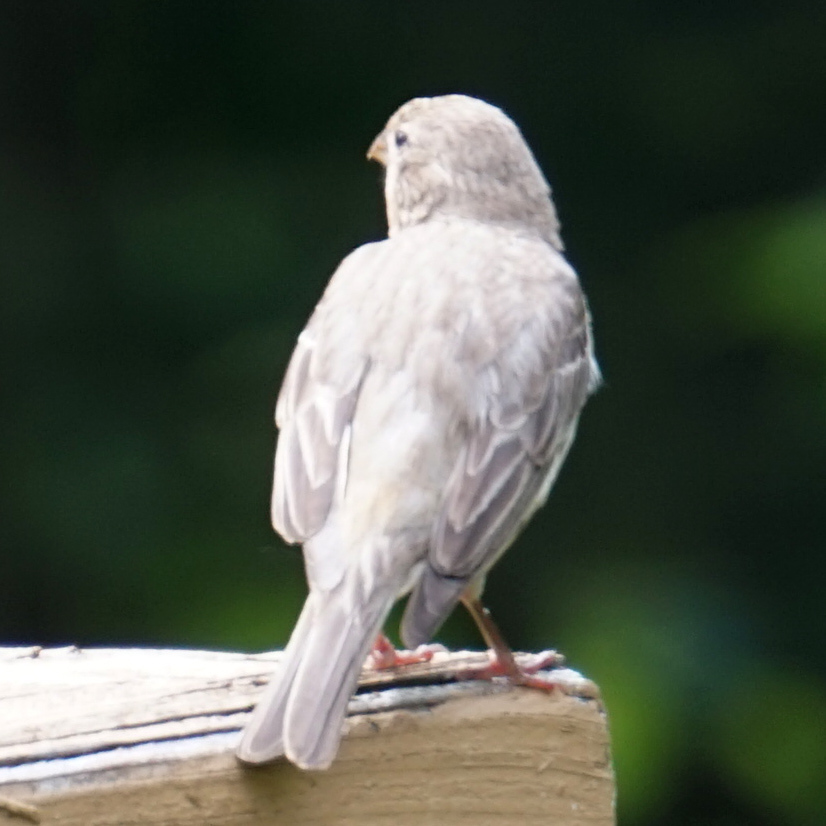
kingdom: Animalia
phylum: Chordata
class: Aves
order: Passeriformes
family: Fringillidae
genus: Haemorhous
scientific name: Haemorhous mexicanus
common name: House finch
